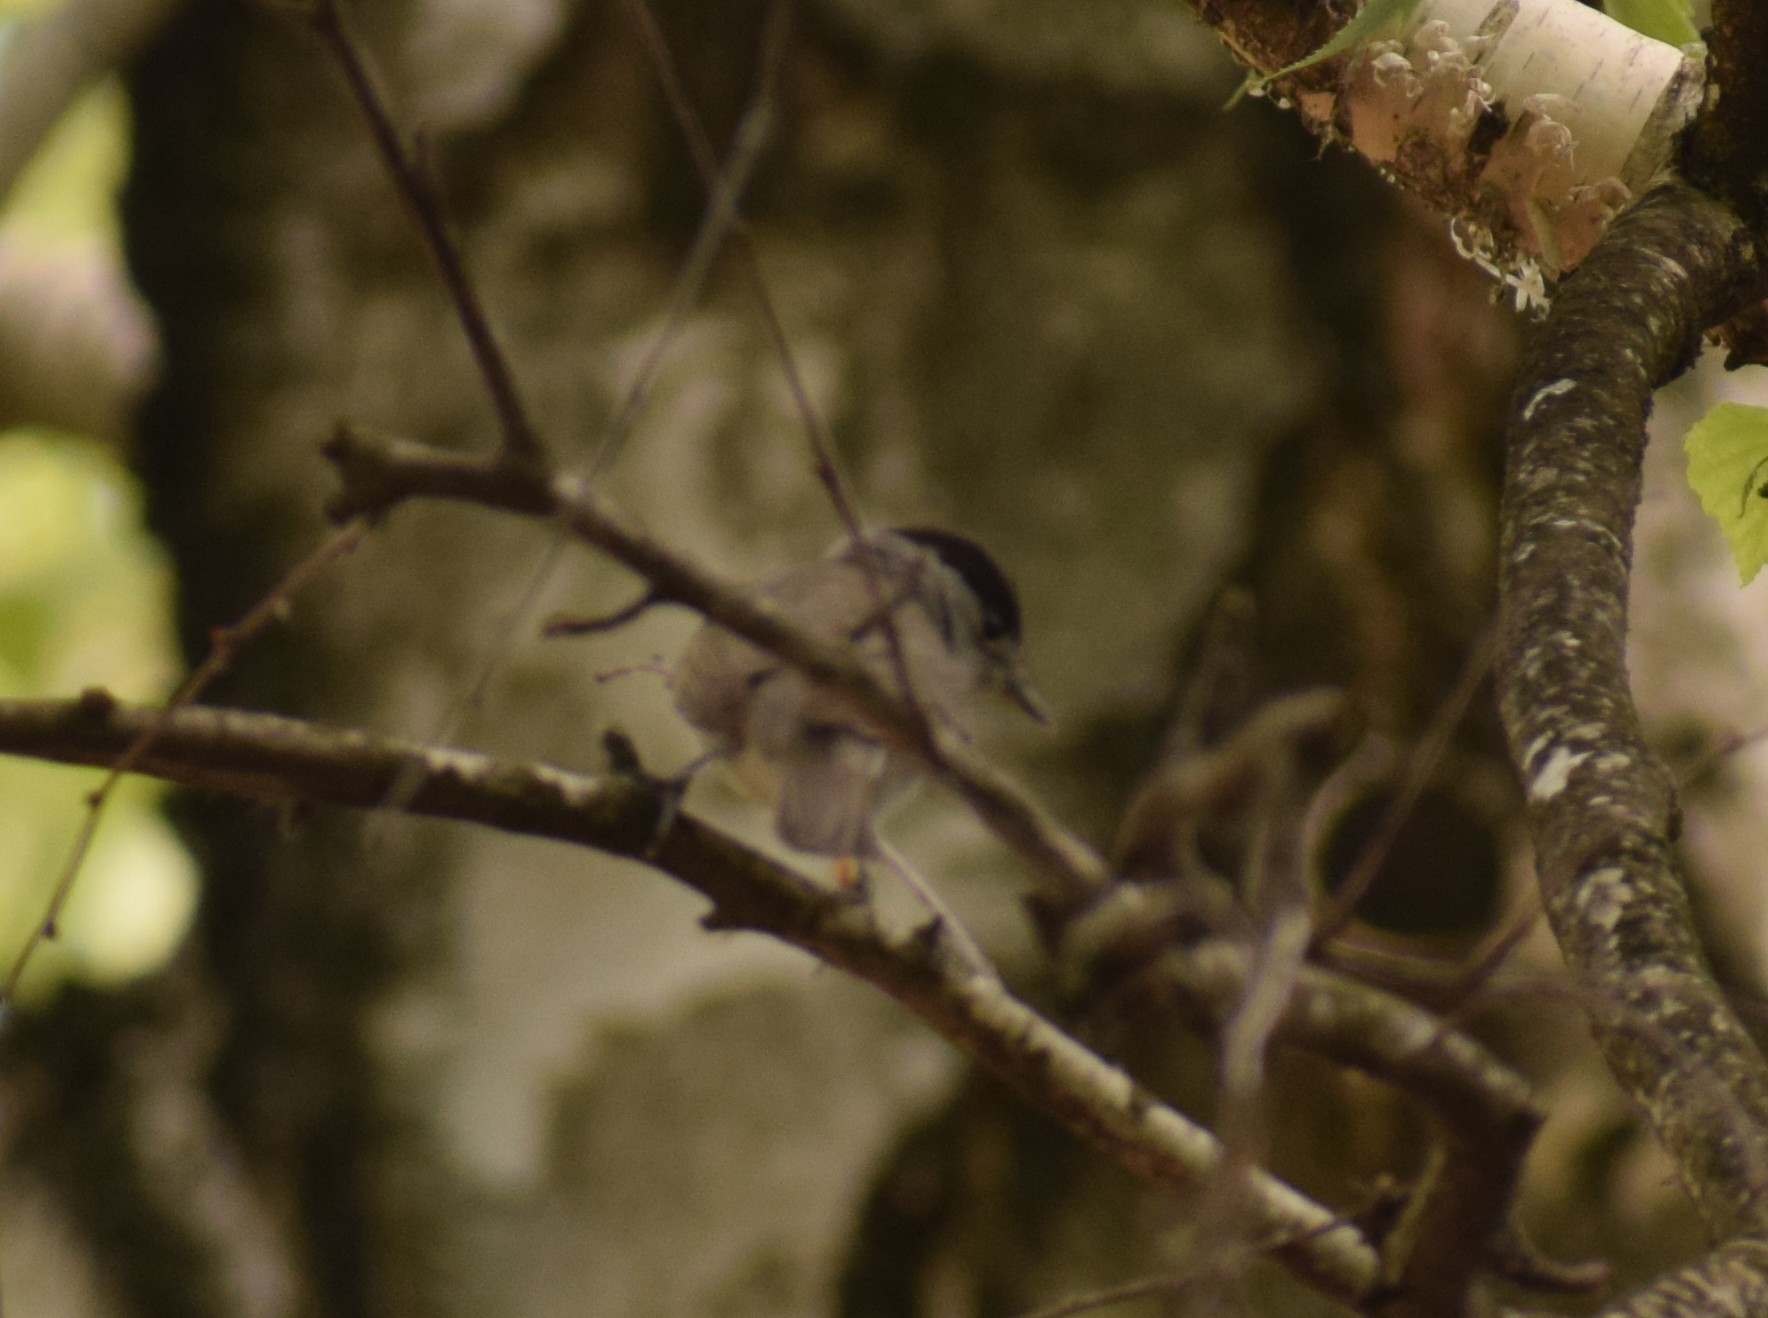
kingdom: Animalia
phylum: Chordata
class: Aves
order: Passeriformes
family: Sylviidae
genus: Sylvia
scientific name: Sylvia atricapilla
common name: Eurasian blackcap
